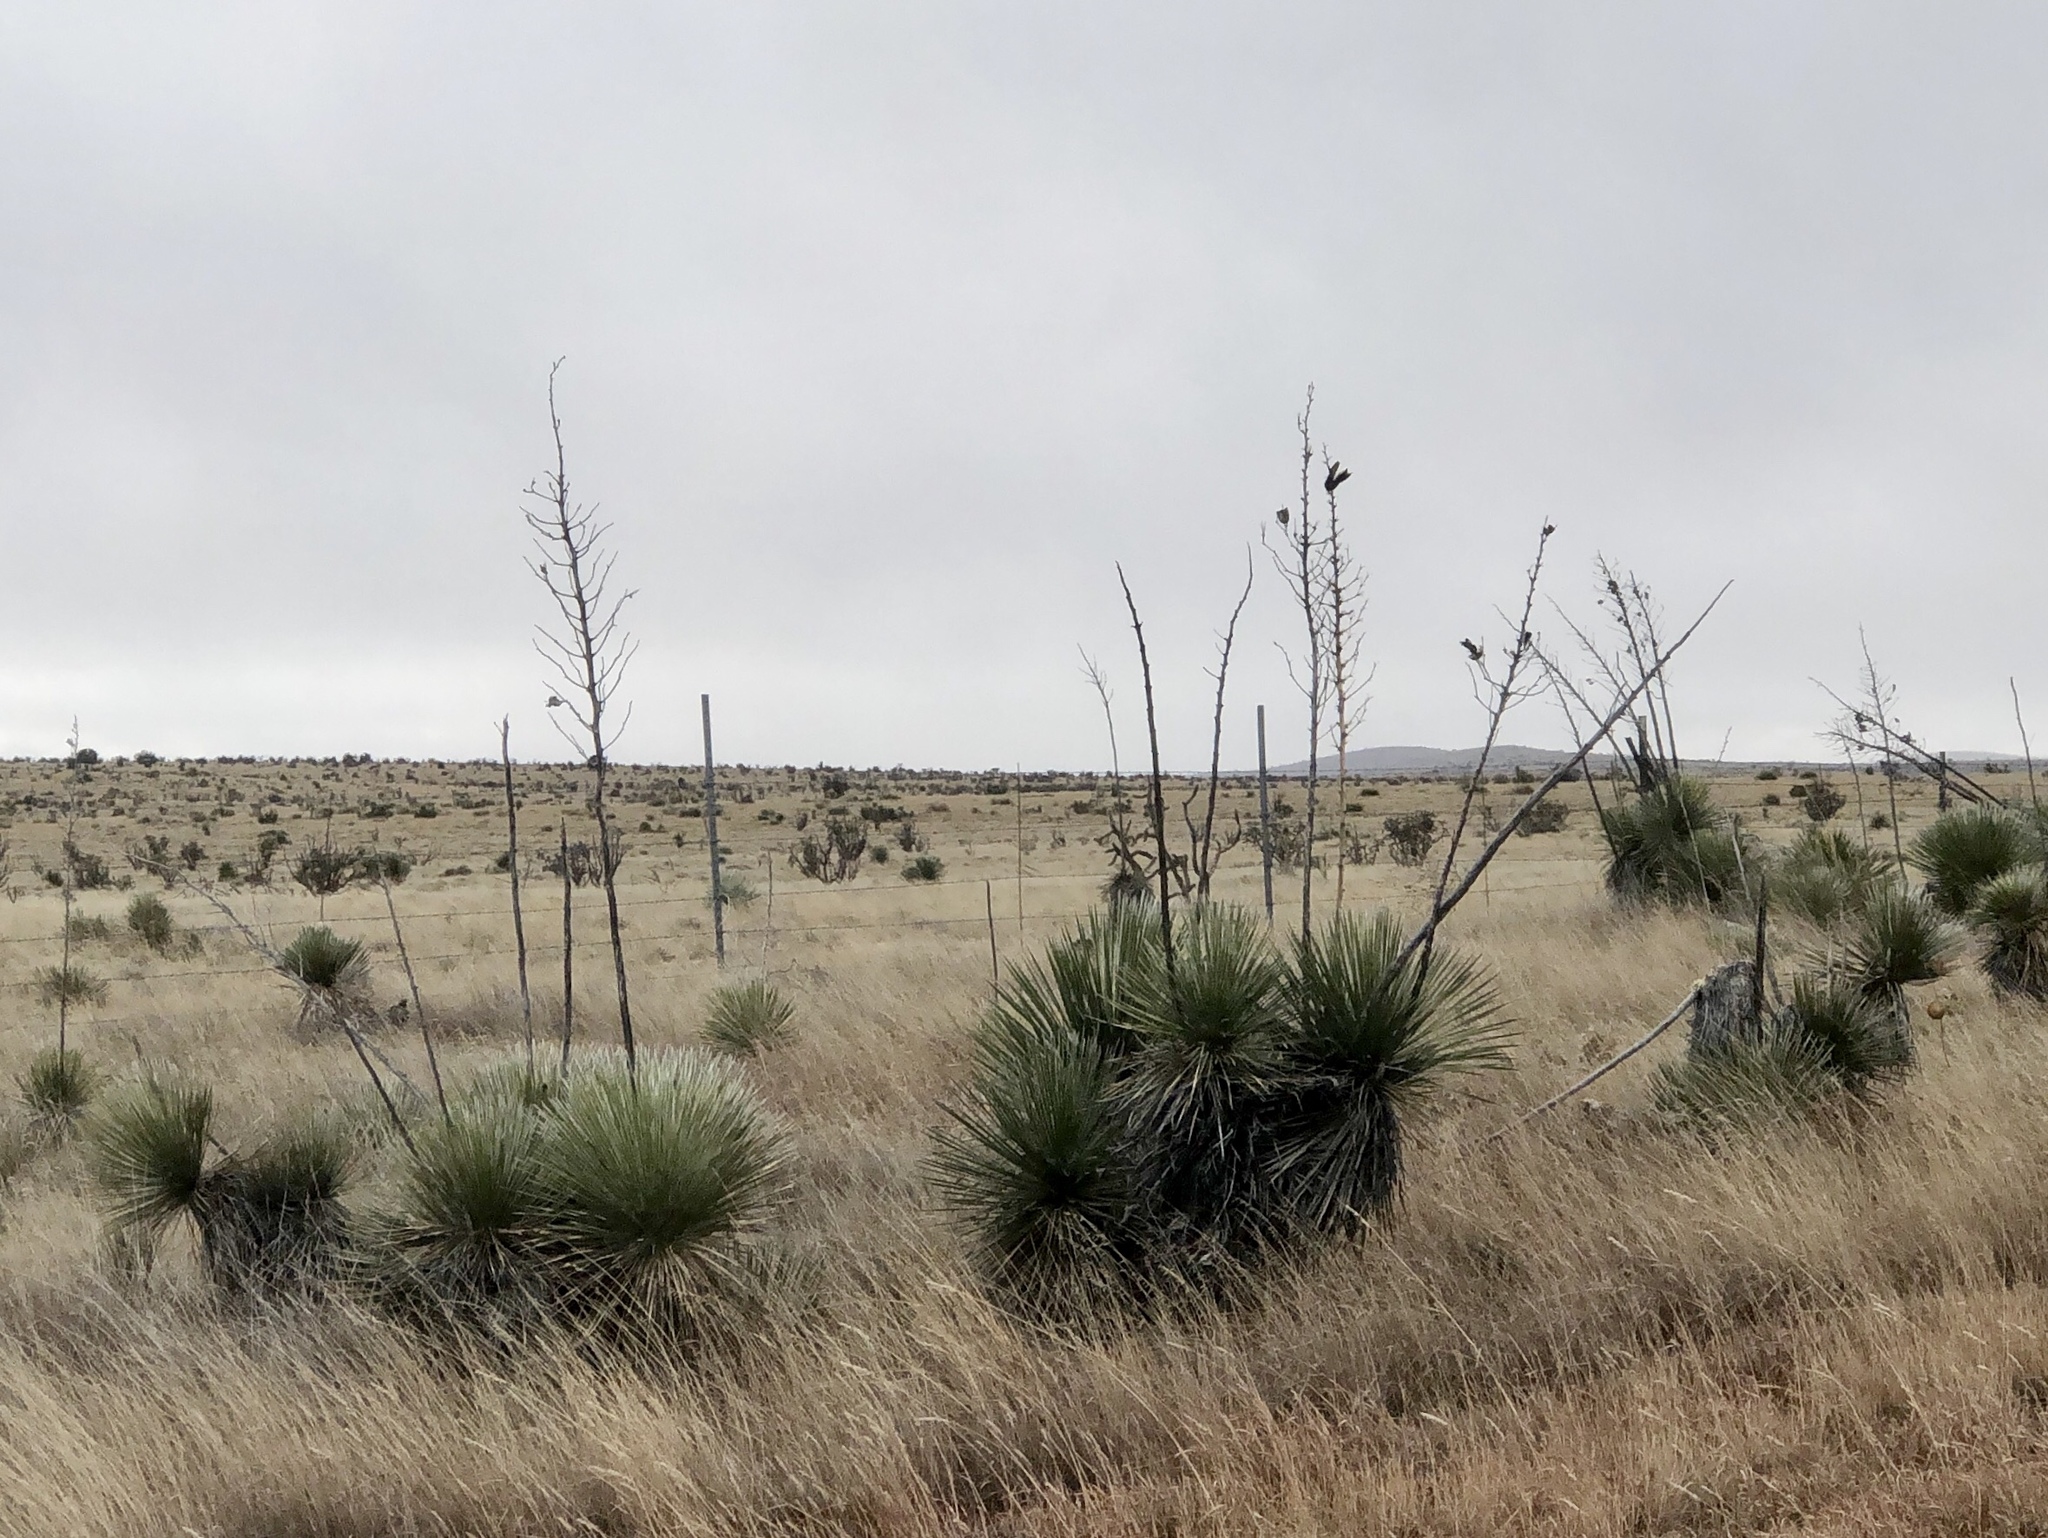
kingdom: Plantae
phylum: Tracheophyta
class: Liliopsida
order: Asparagales
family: Asparagaceae
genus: Yucca
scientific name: Yucca elata
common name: Palmella
